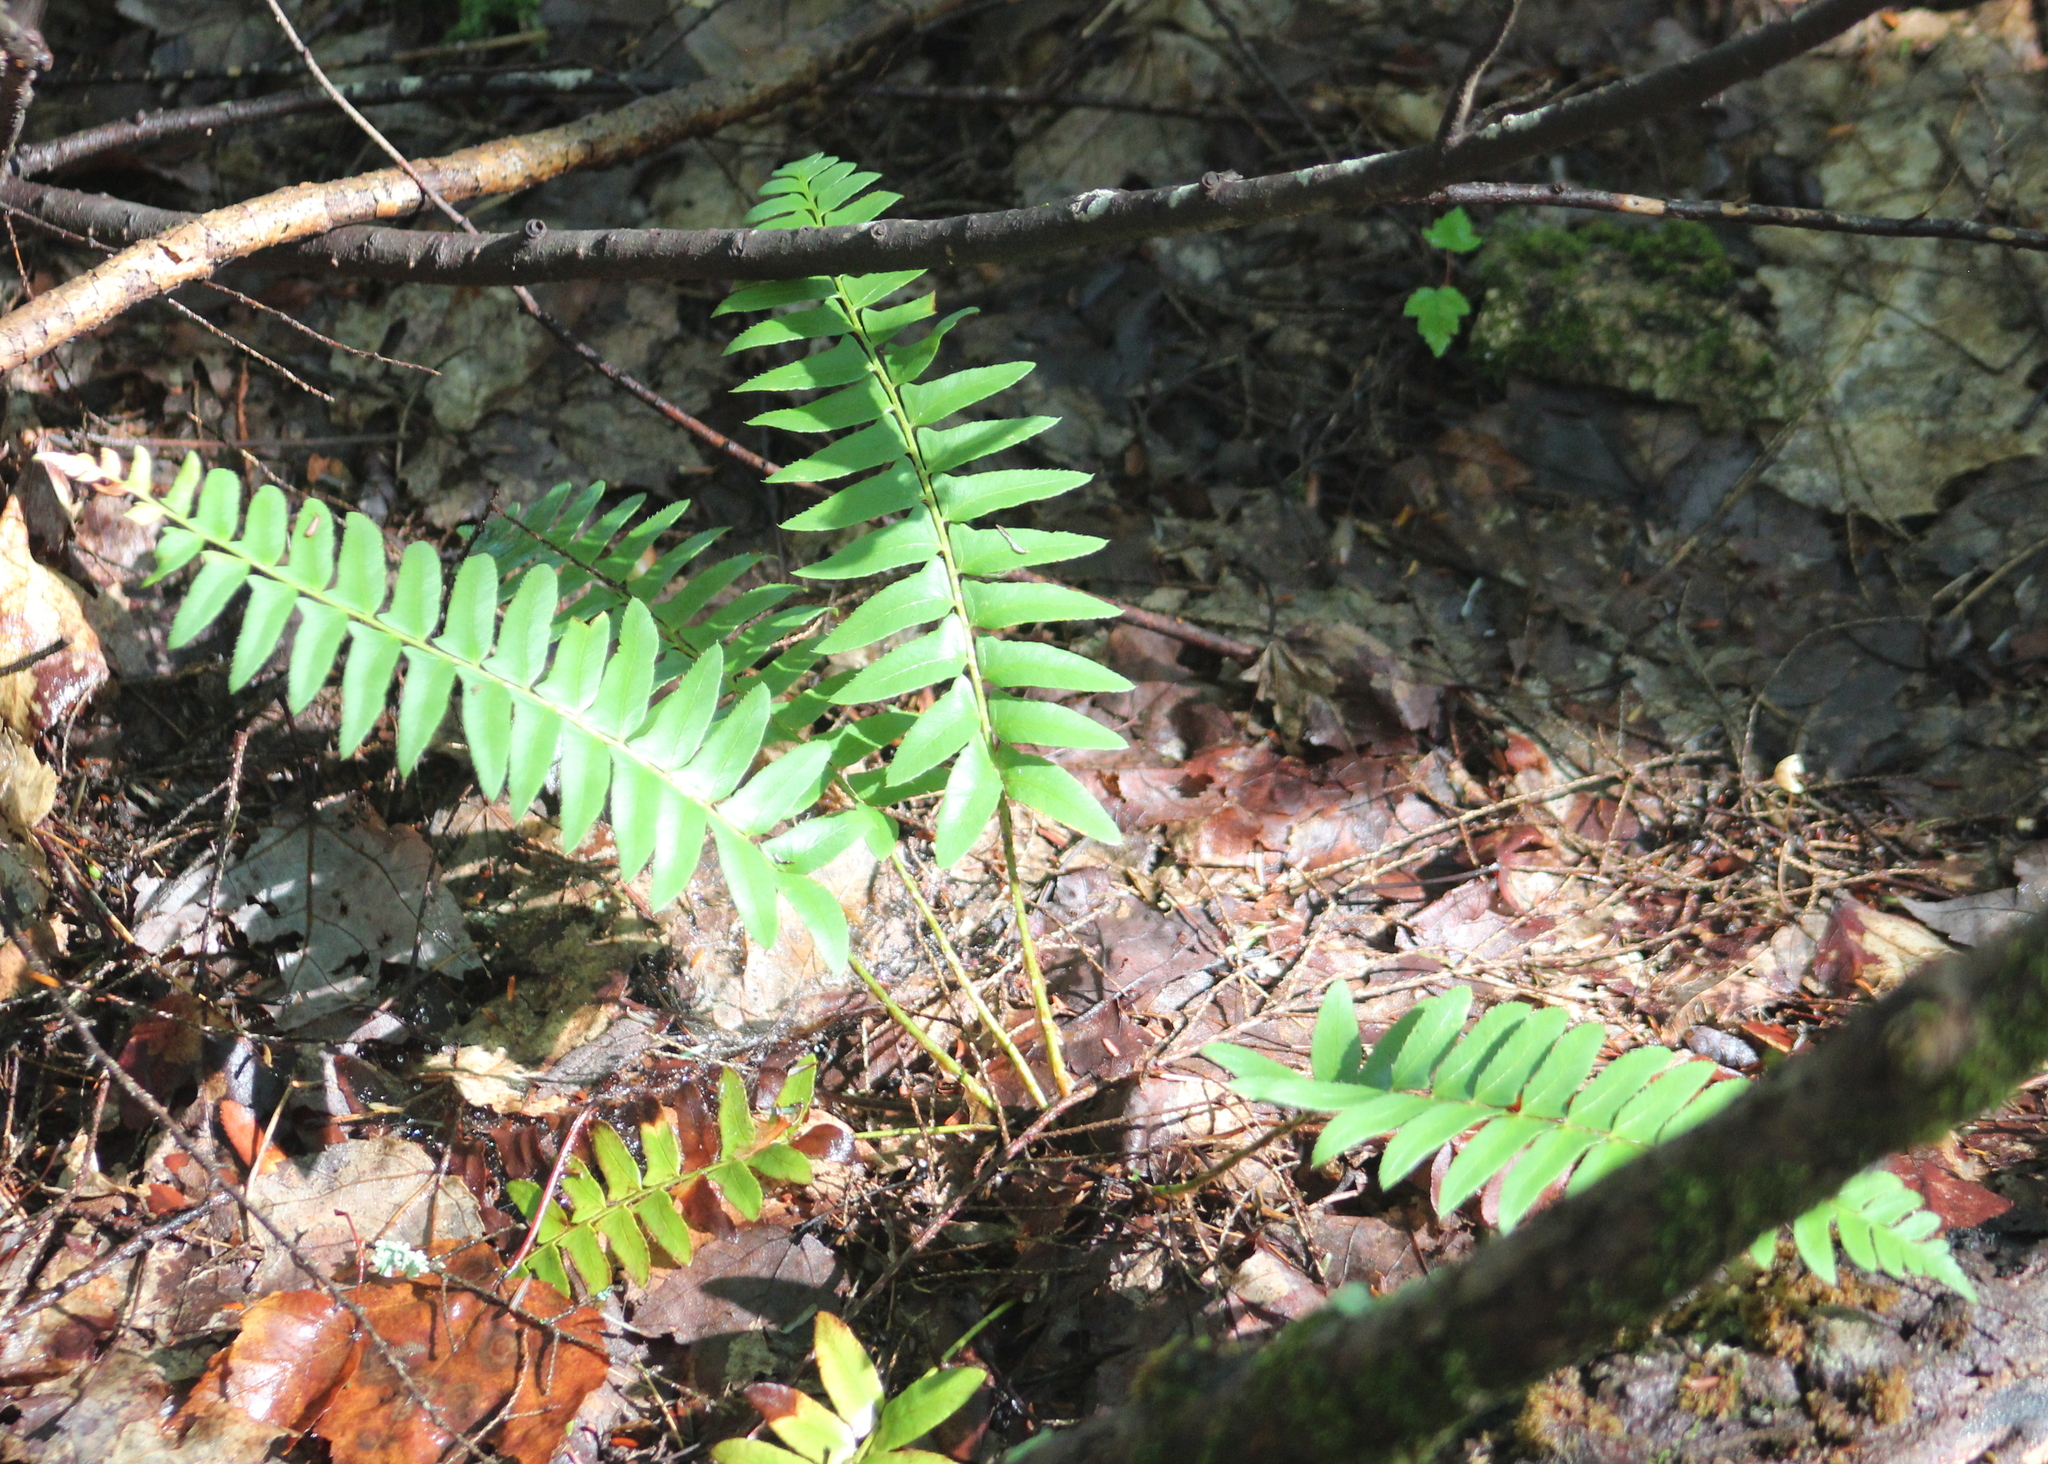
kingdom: Plantae
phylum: Tracheophyta
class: Polypodiopsida
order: Polypodiales
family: Dryopteridaceae
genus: Polystichum
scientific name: Polystichum acrostichoides
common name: Christmas fern
